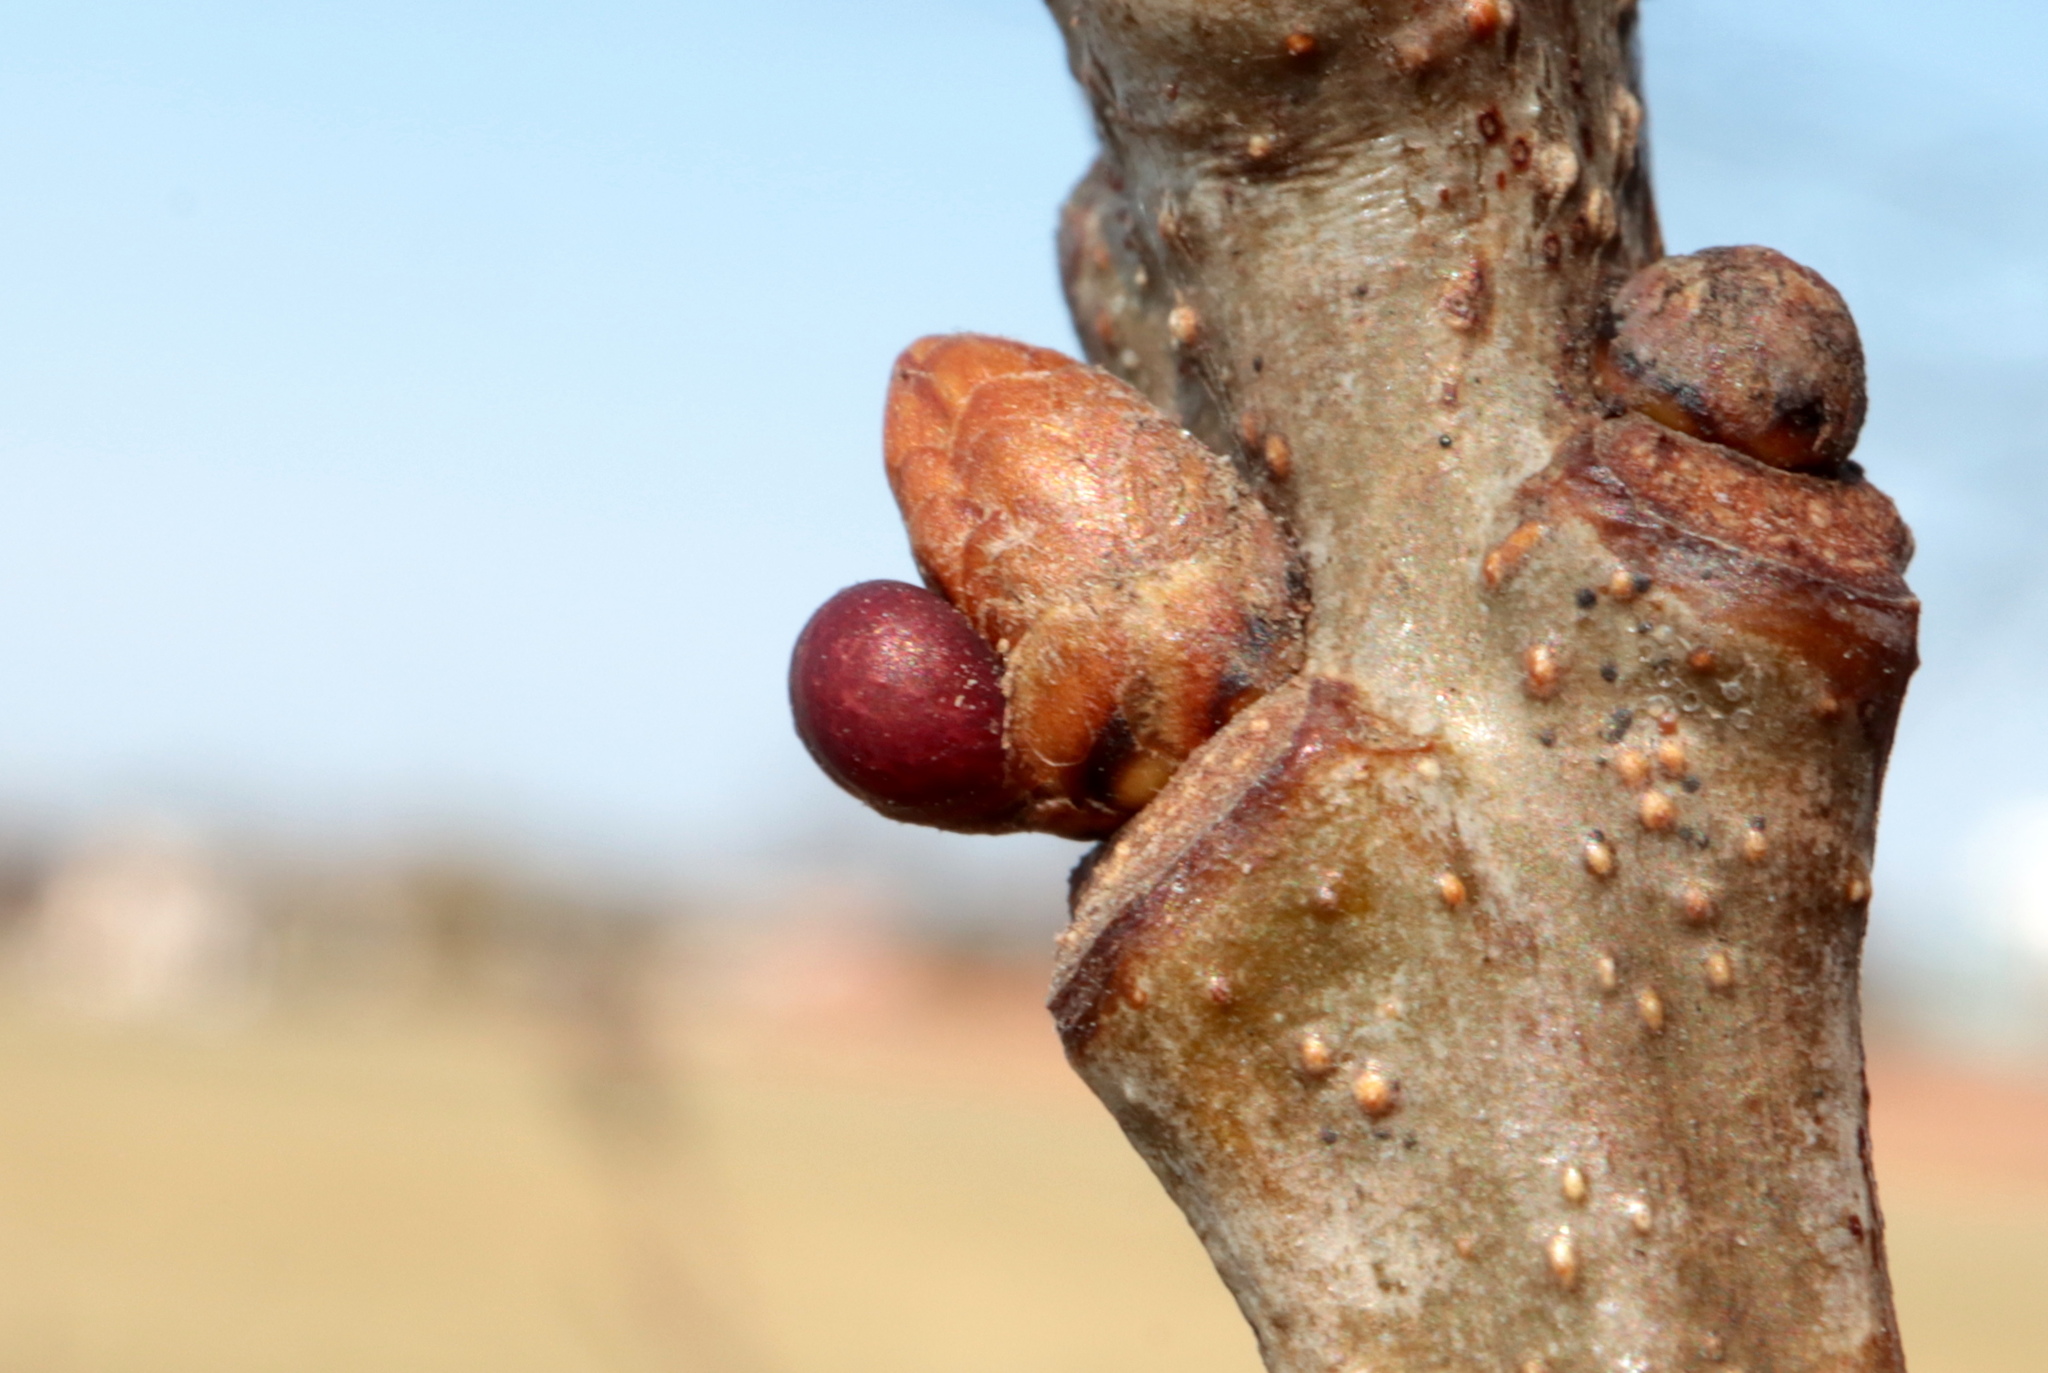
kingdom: Animalia
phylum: Arthropoda
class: Insecta
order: Hymenoptera
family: Cynipidae
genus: Neuroterus
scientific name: Neuroterus
